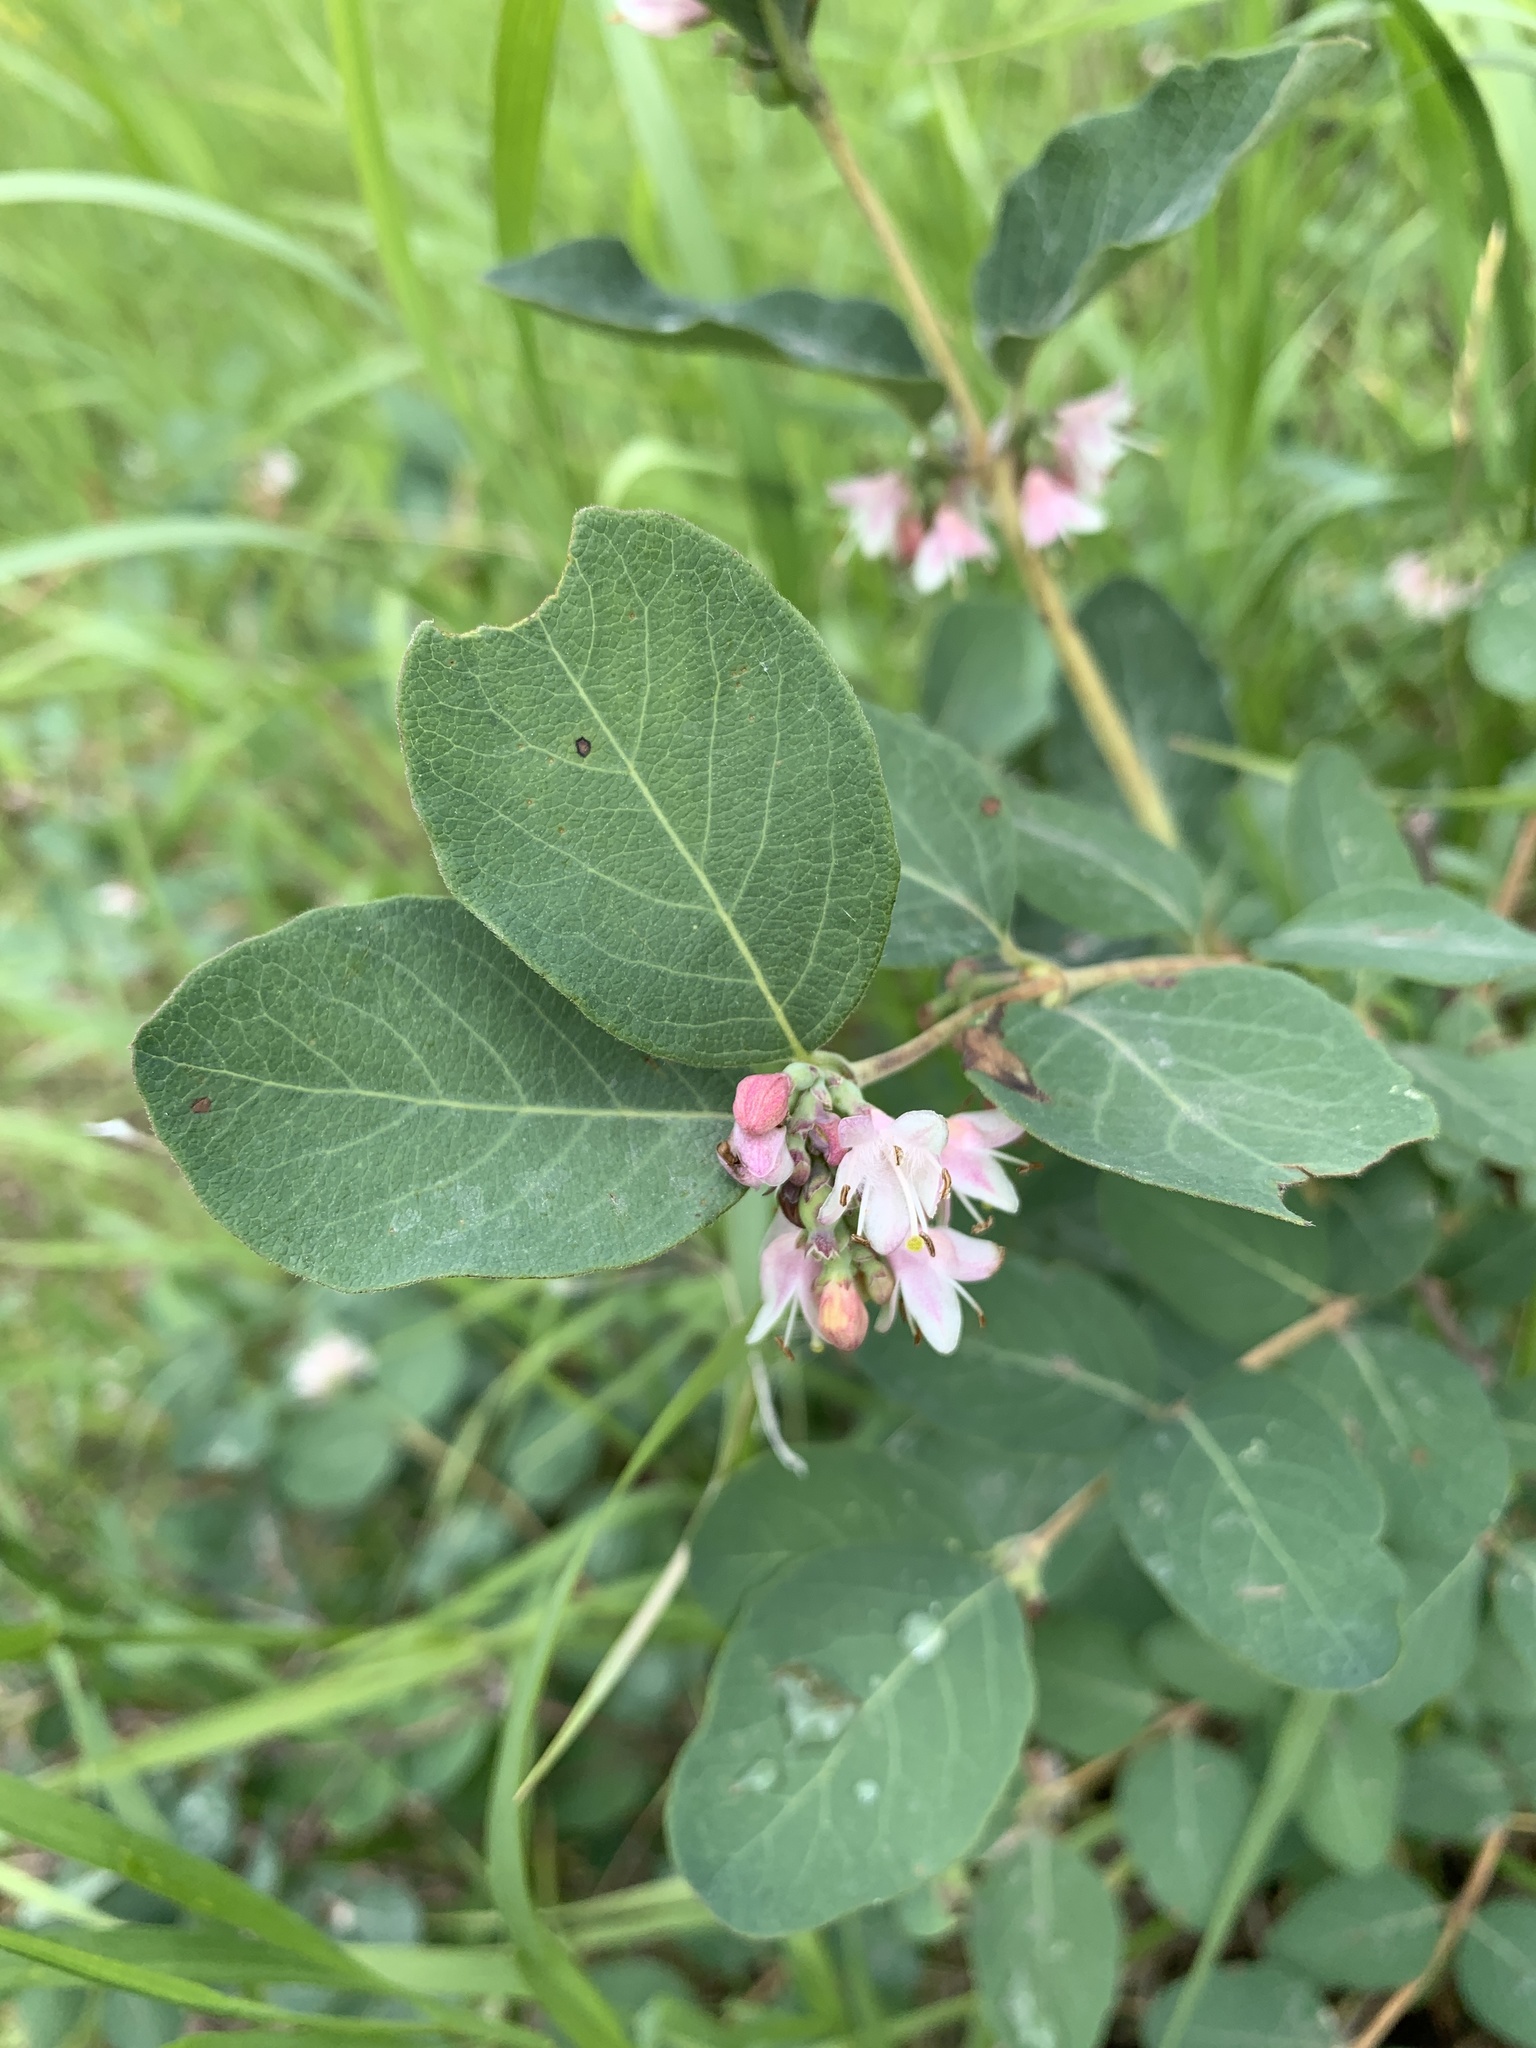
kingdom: Plantae
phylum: Tracheophyta
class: Magnoliopsida
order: Dipsacales
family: Caprifoliaceae
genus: Symphoricarpos
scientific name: Symphoricarpos occidentalis
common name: Wolfberry
